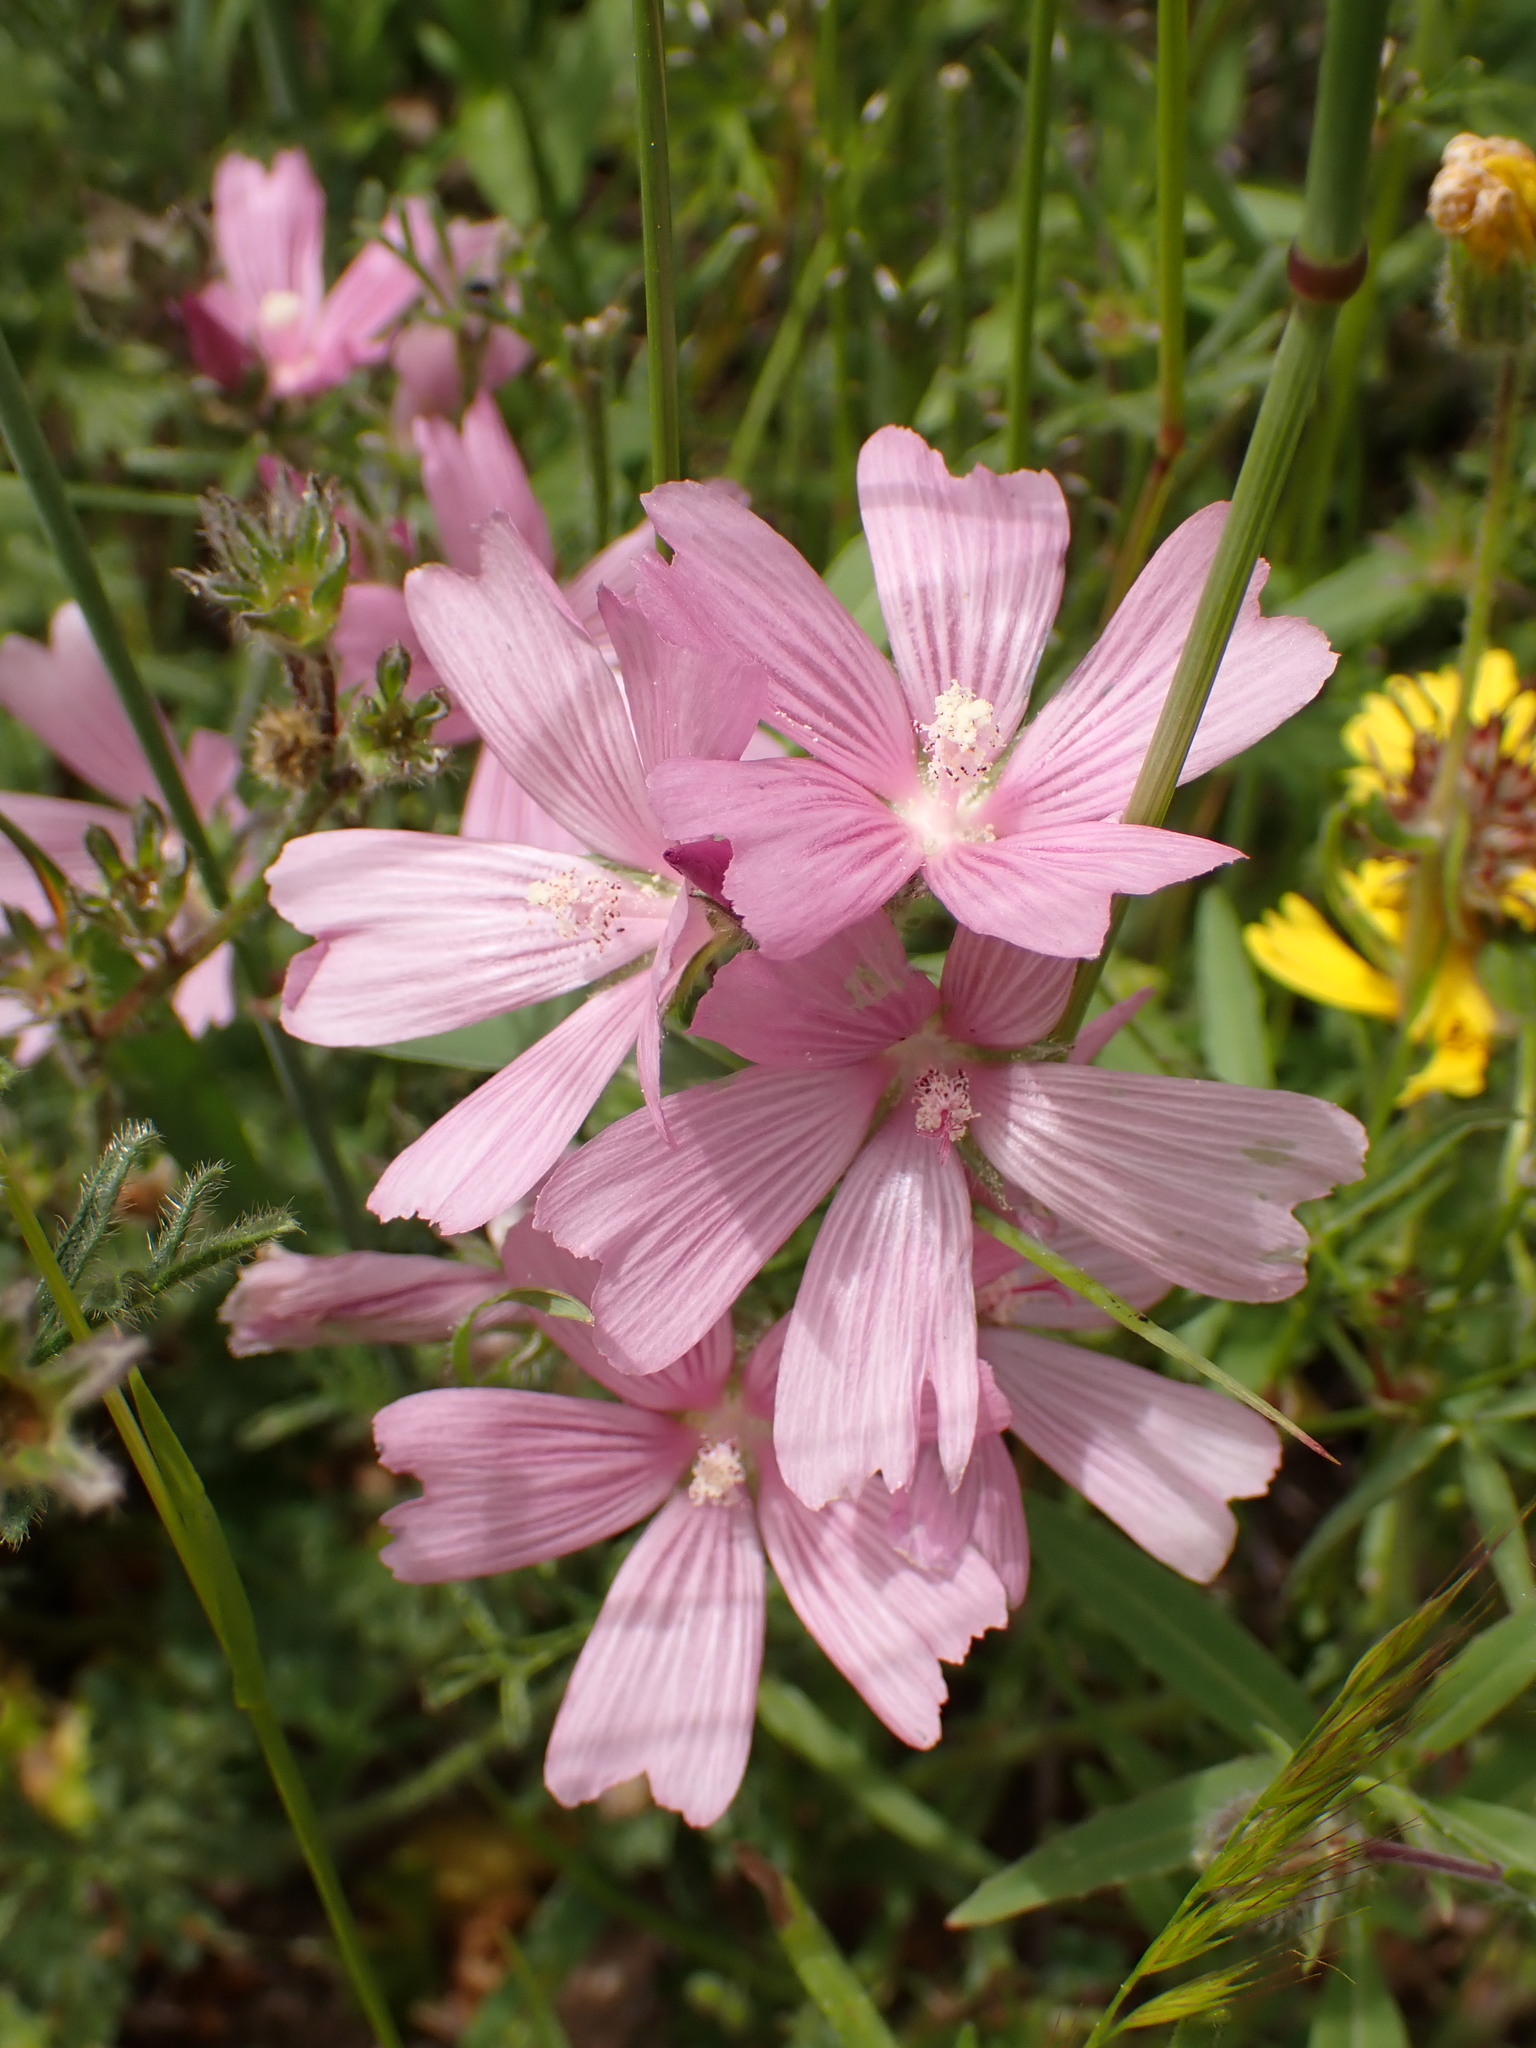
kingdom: Plantae
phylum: Tracheophyta
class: Magnoliopsida
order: Malvales
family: Malvaceae
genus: Sidalcea
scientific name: Sidalcea malviflora
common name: Greek mallow
